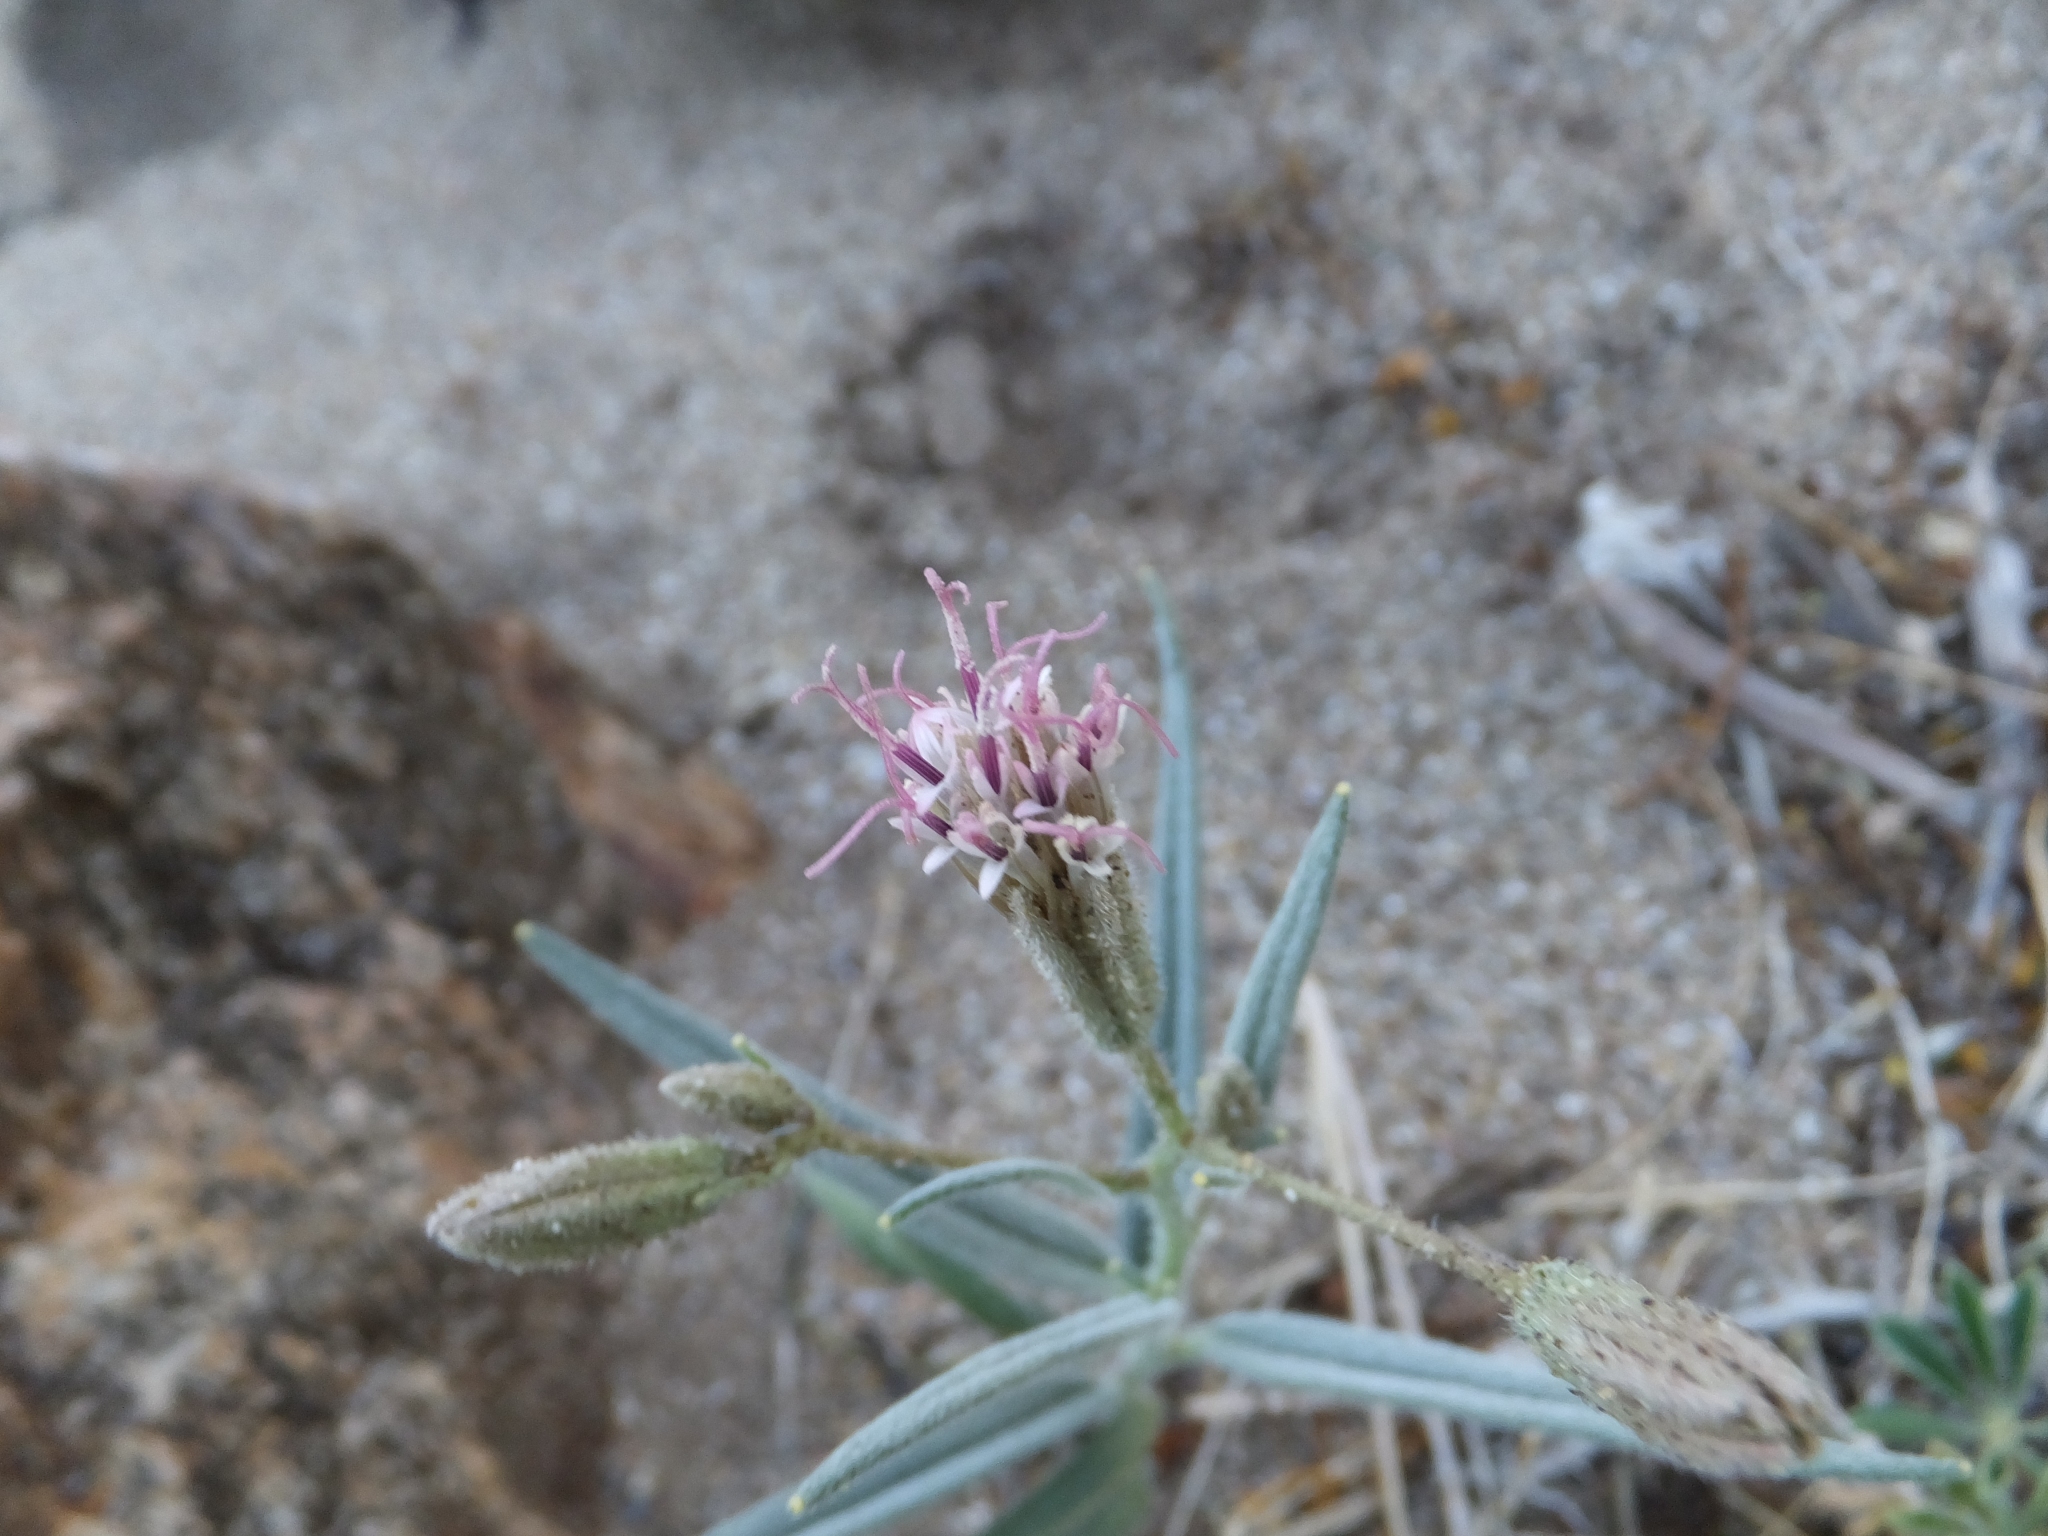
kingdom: Plantae
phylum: Tracheophyta
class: Magnoliopsida
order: Asterales
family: Asteraceae
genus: Palafoxia
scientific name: Palafoxia arida
